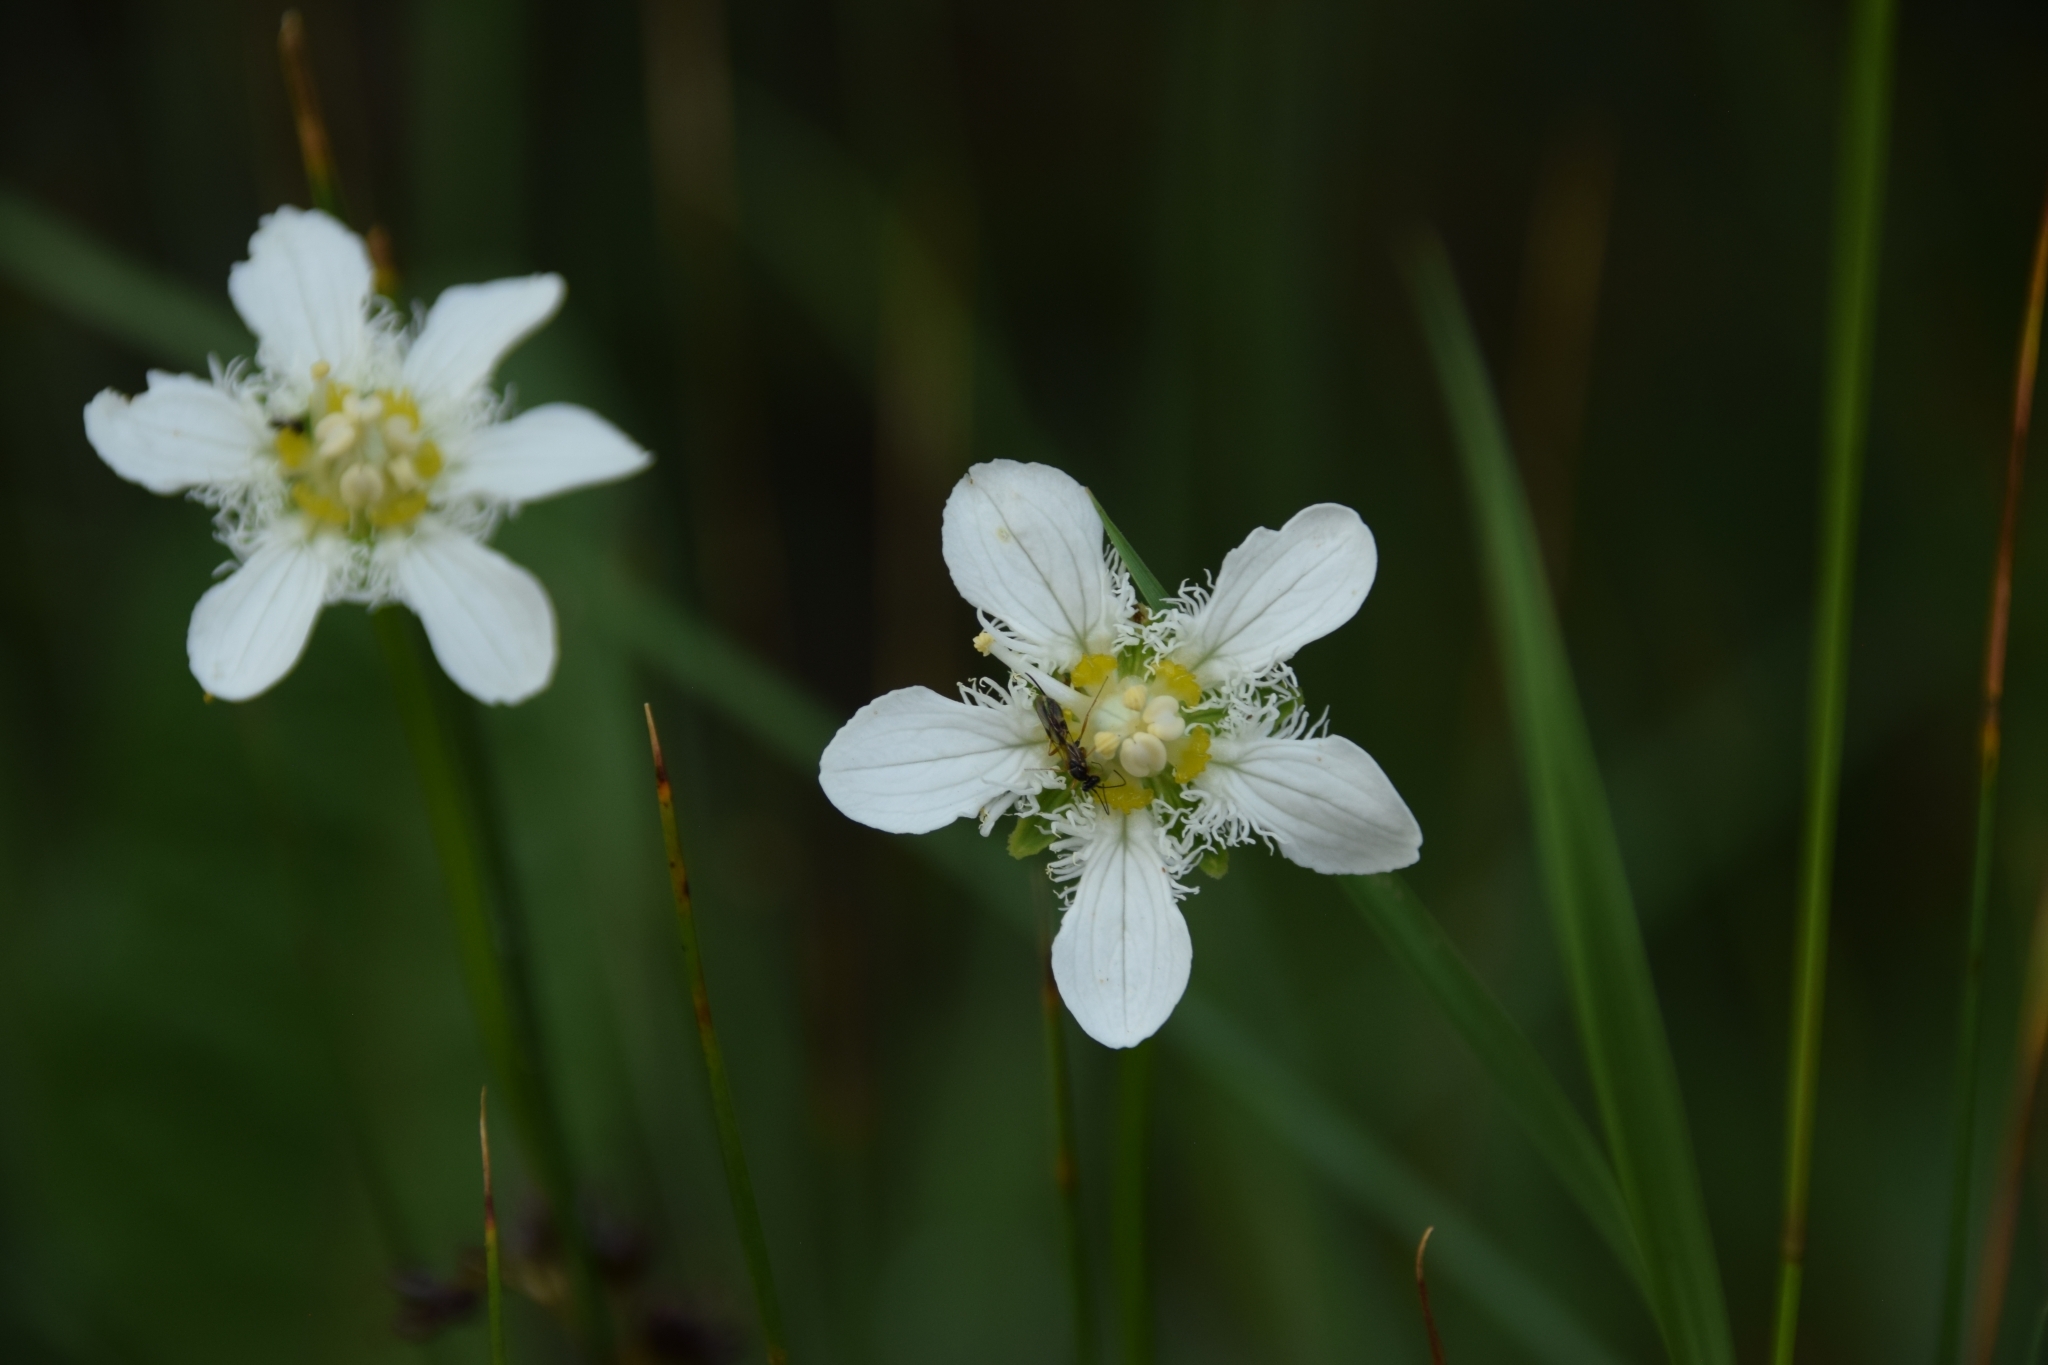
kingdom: Plantae
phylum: Tracheophyta
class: Magnoliopsida
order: Celastrales
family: Parnassiaceae
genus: Parnassia
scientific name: Parnassia fimbriata
